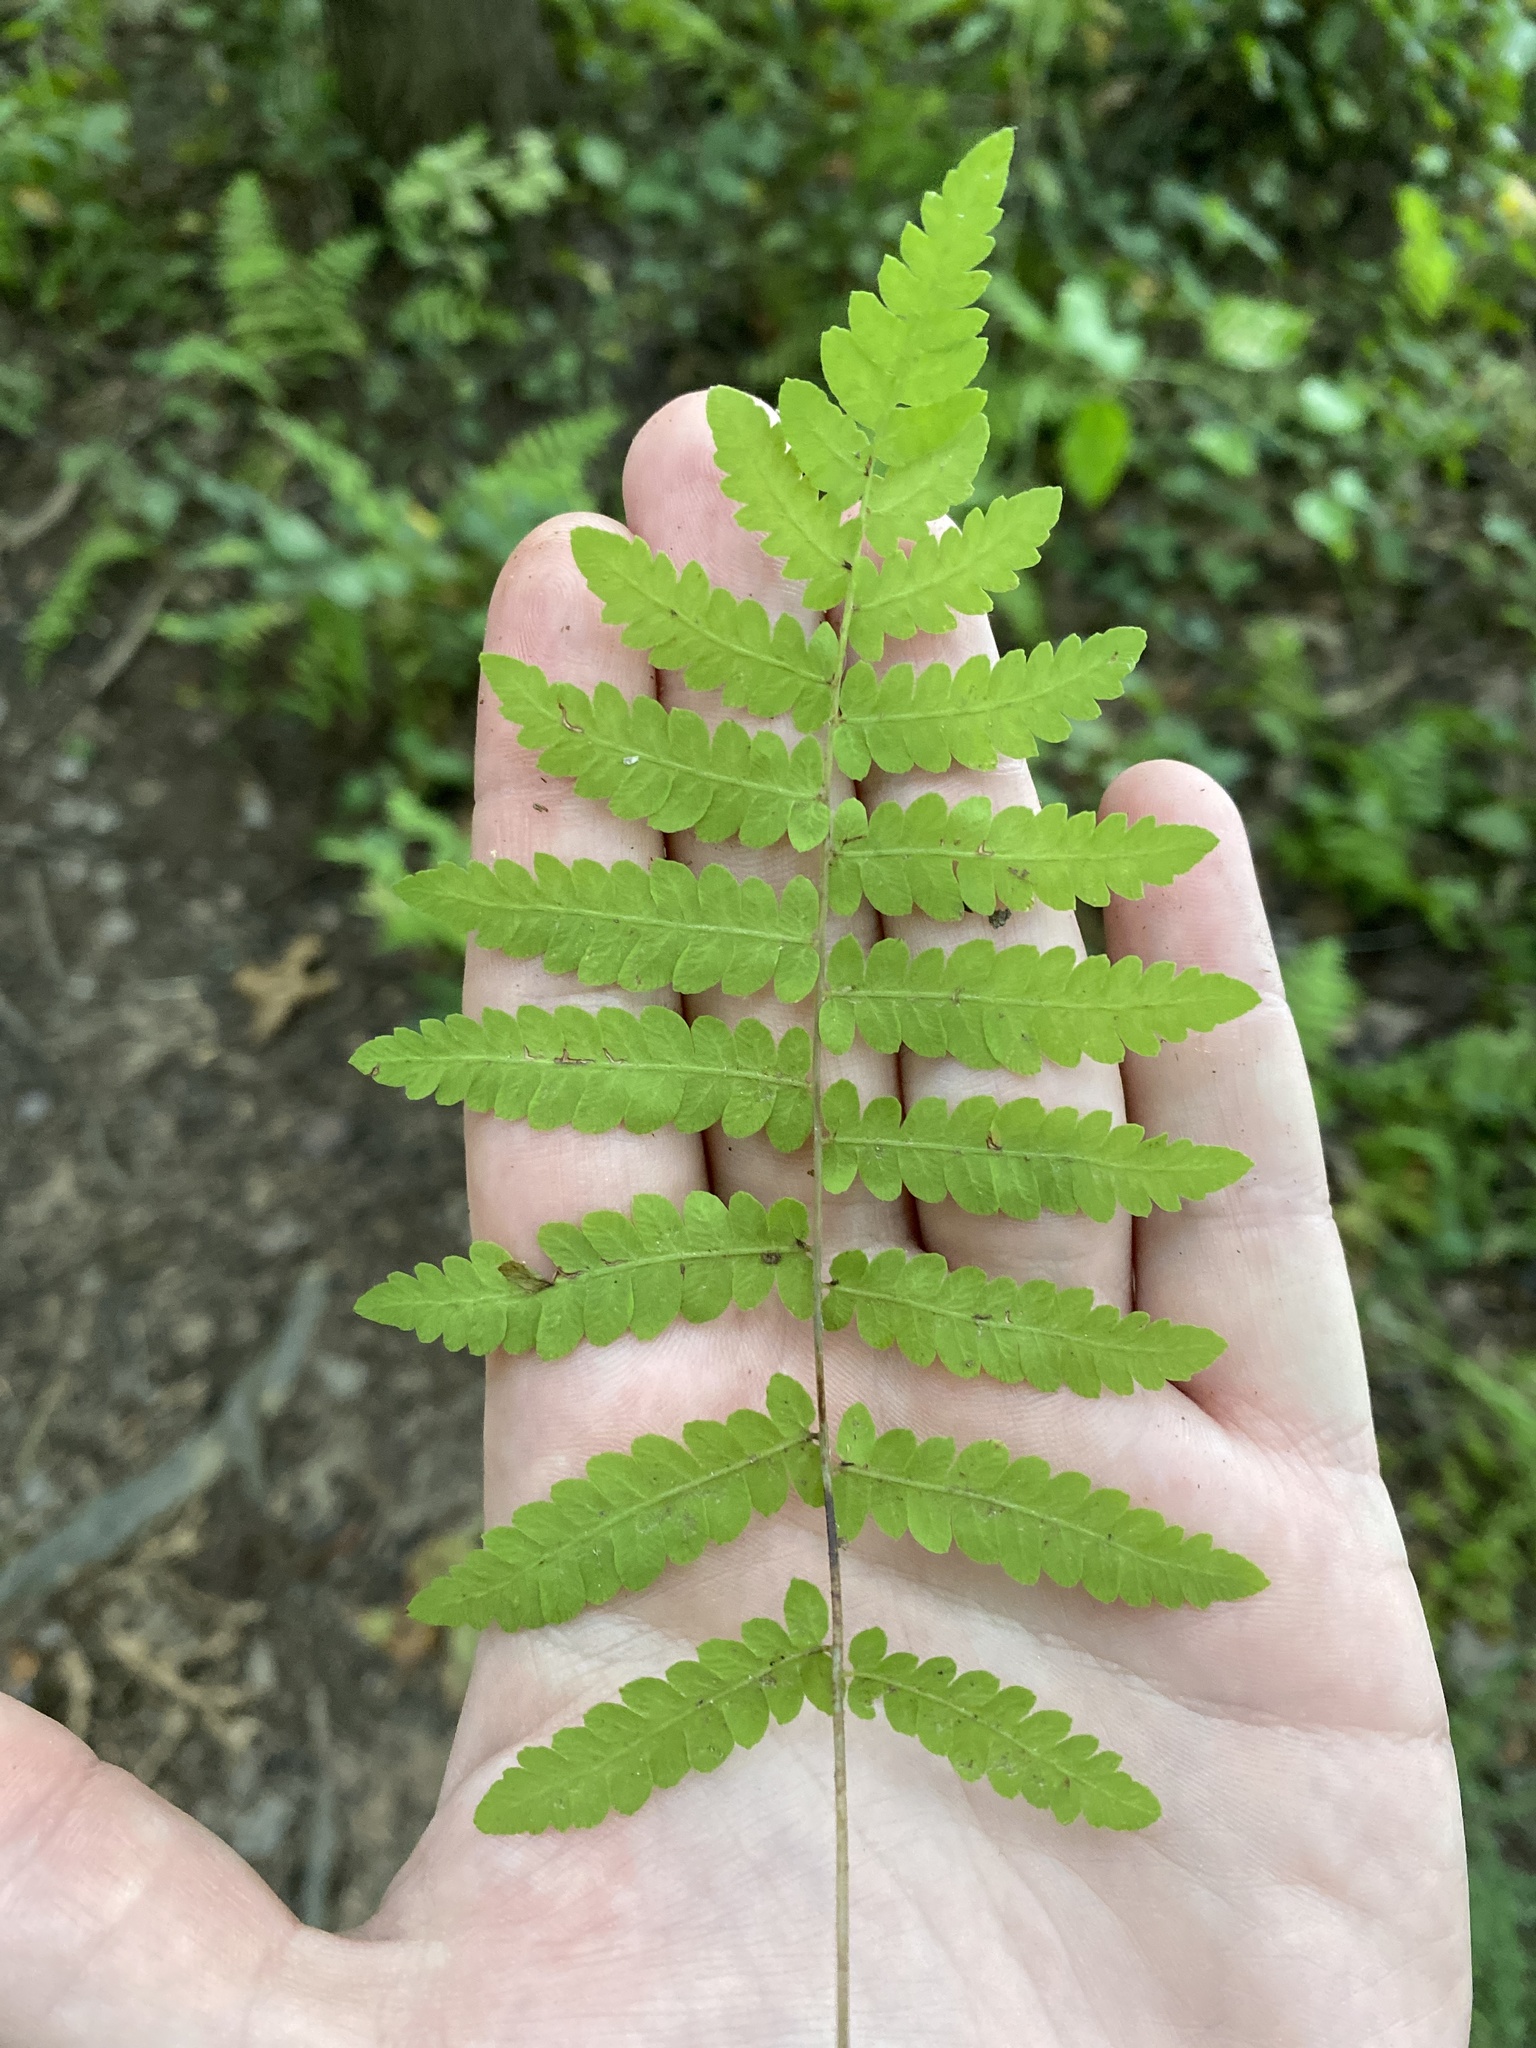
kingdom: Plantae
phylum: Tracheophyta
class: Polypodiopsida
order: Polypodiales
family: Thelypteridaceae
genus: Thelypteris
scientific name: Thelypteris palustris
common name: Marsh fern
